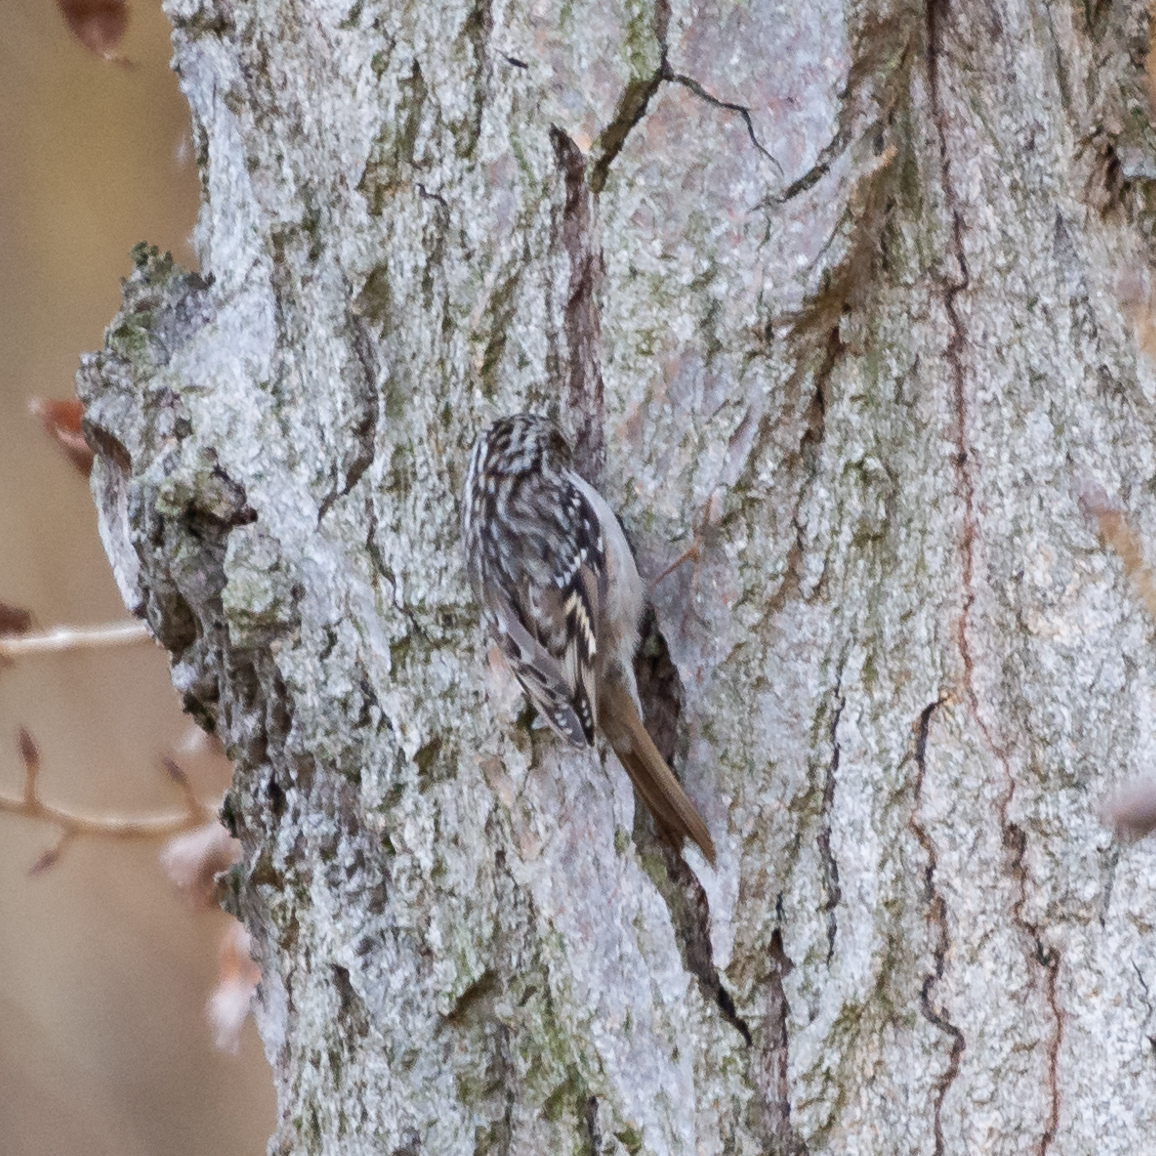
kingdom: Animalia
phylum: Chordata
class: Aves
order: Passeriformes
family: Certhiidae
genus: Certhia
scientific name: Certhia brachydactyla
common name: Short-toed treecreeper
